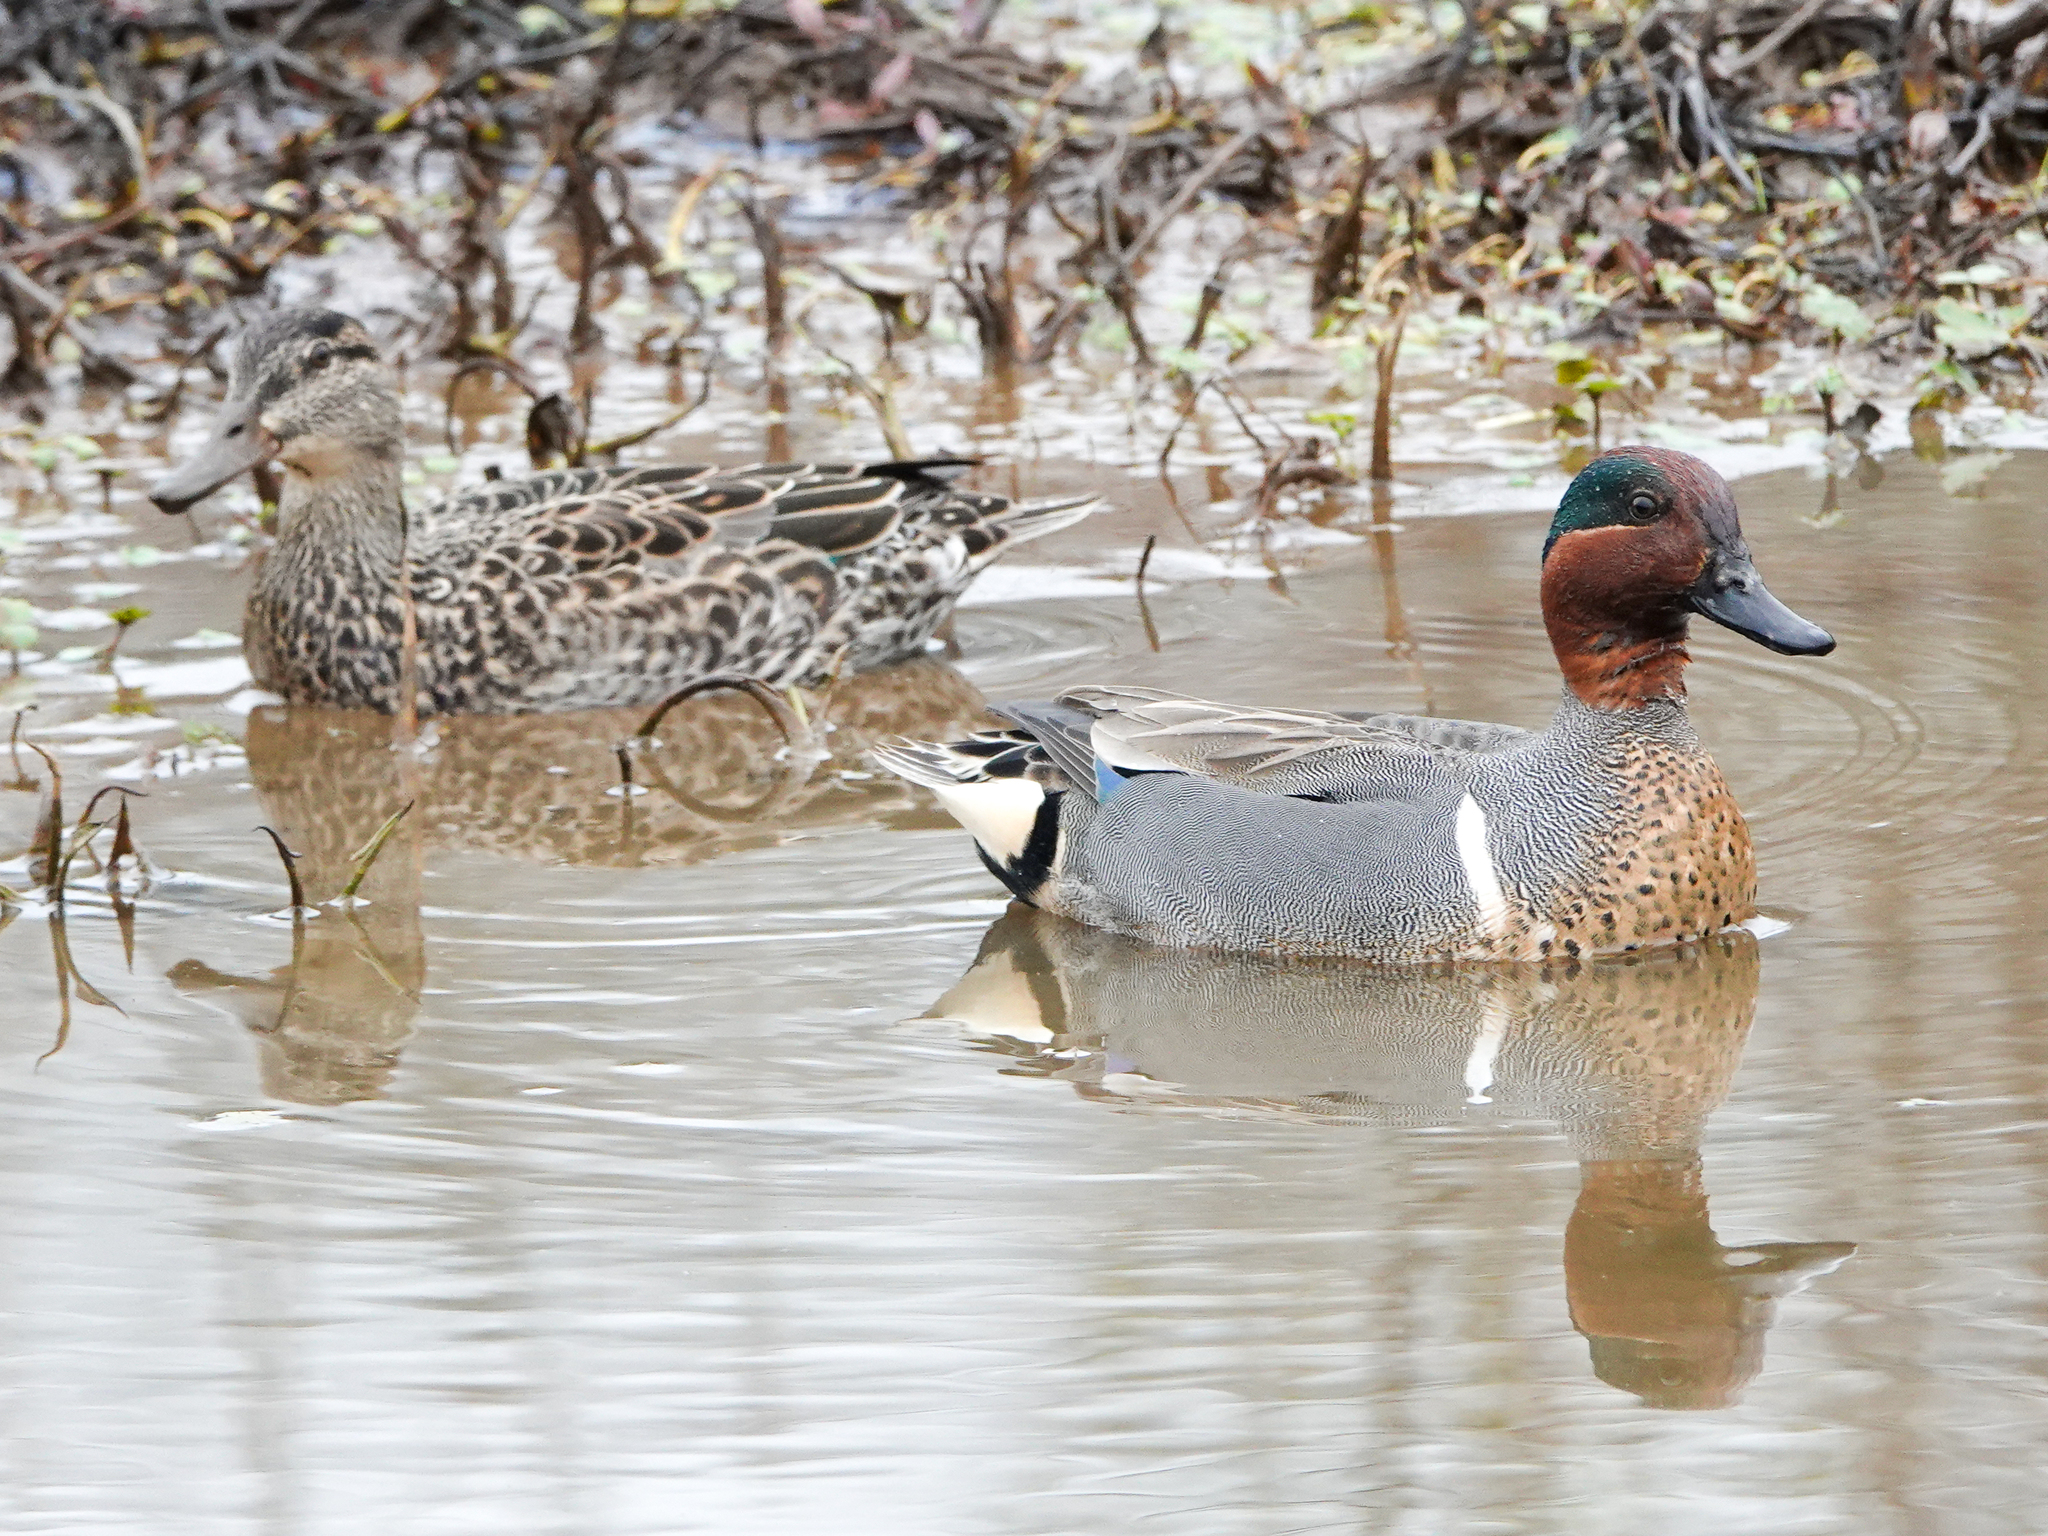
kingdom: Animalia
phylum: Chordata
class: Aves
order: Anseriformes
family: Anatidae
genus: Anas
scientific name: Anas crecca
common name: Eurasian teal
